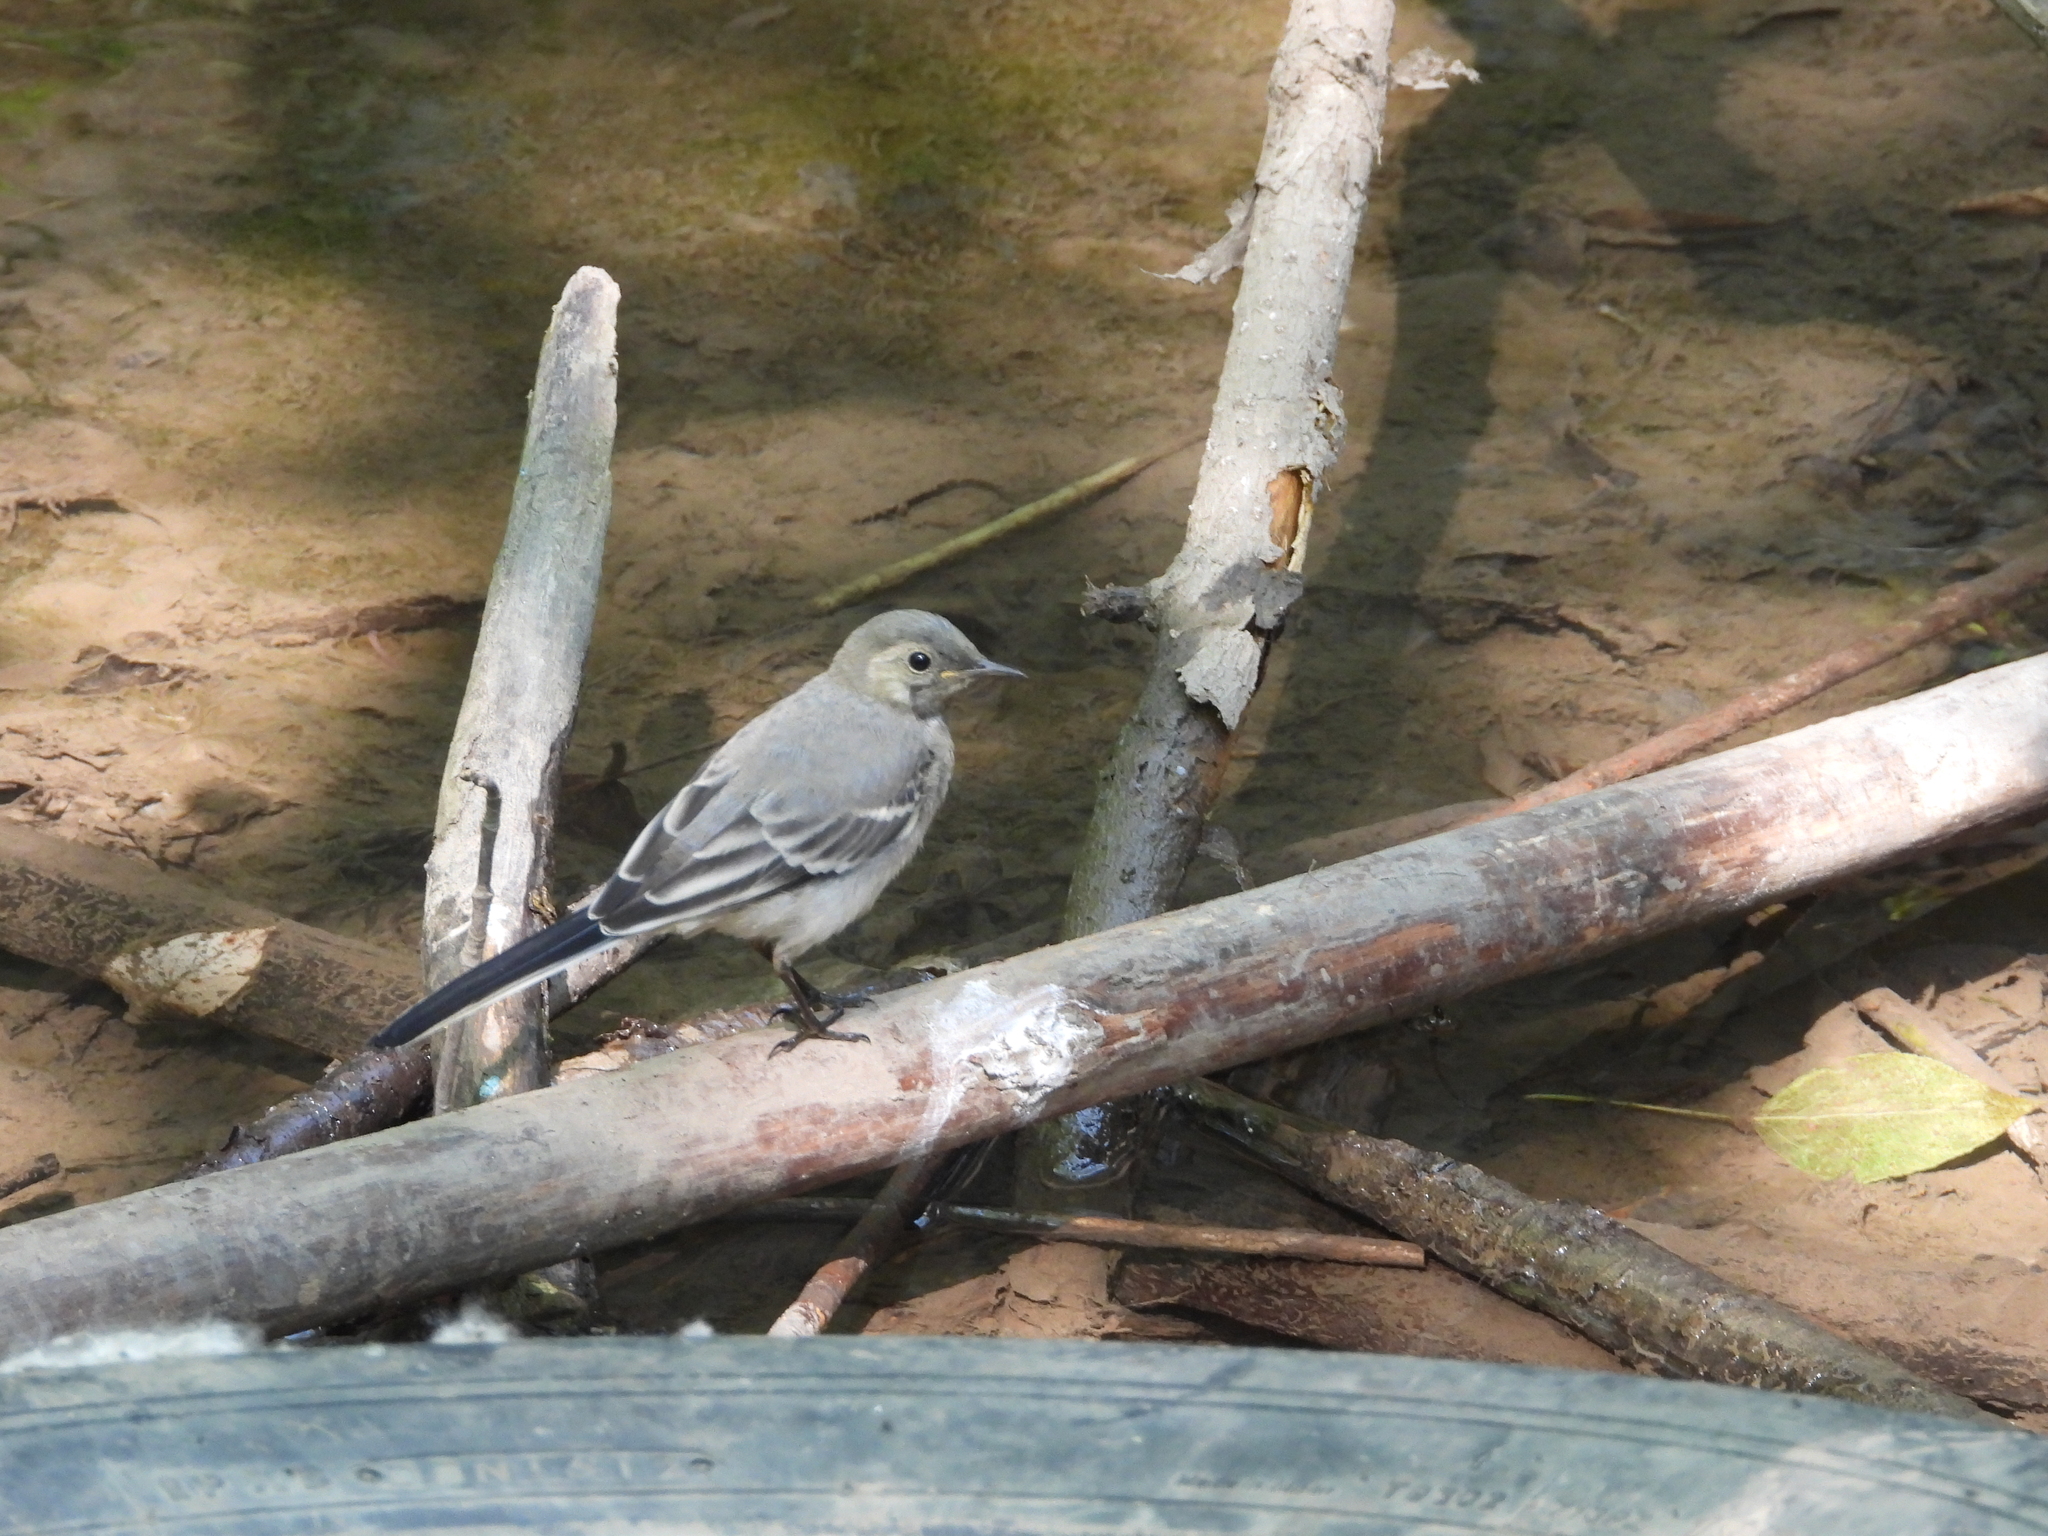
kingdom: Animalia
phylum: Chordata
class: Aves
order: Passeriformes
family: Motacillidae
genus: Motacilla
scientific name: Motacilla alba
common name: White wagtail
